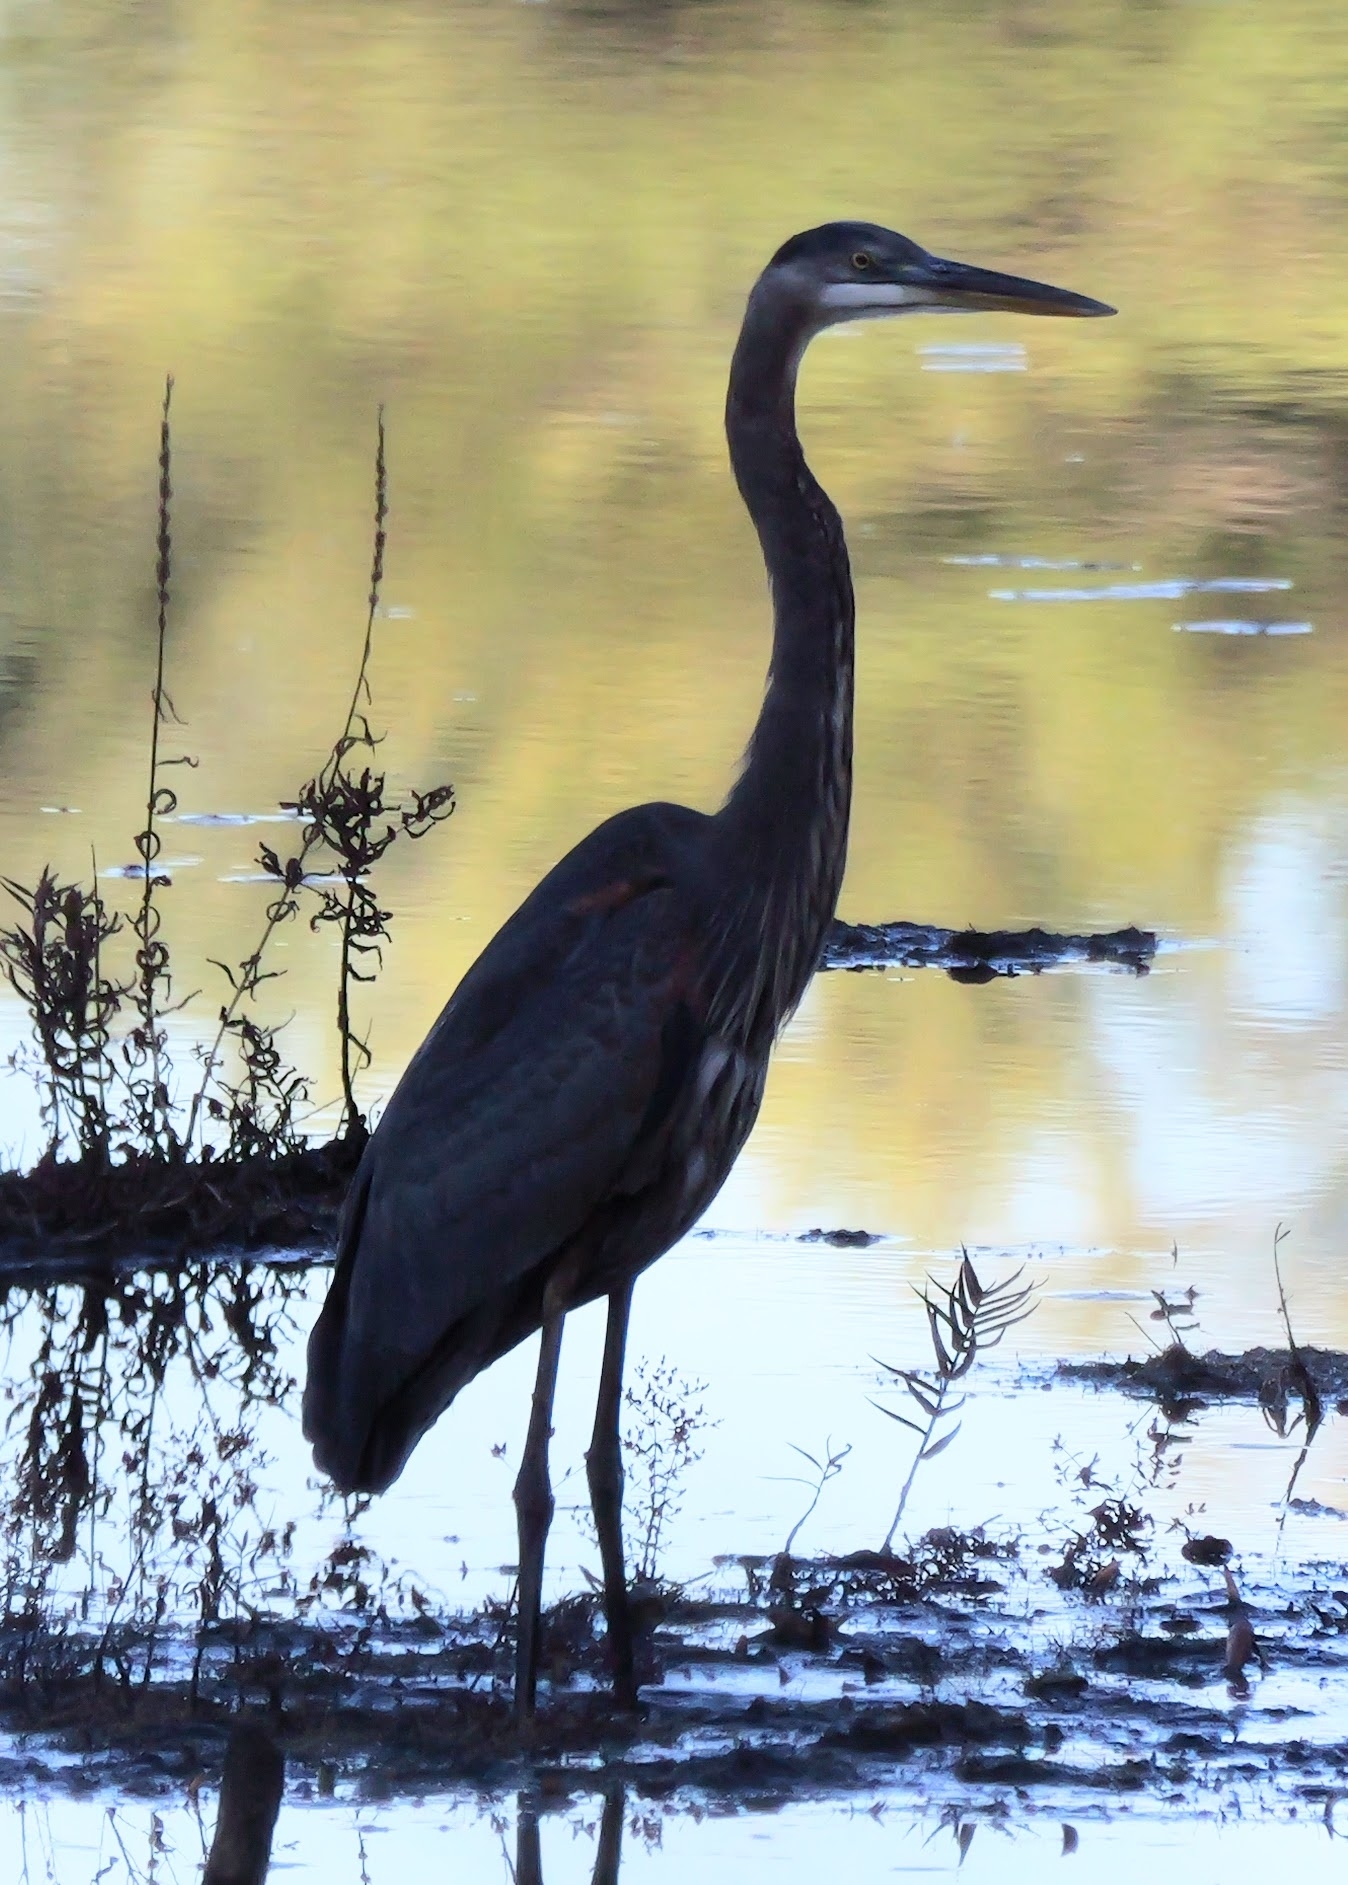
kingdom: Animalia
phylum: Chordata
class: Aves
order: Pelecaniformes
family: Ardeidae
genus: Ardea
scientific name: Ardea herodias
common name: Great blue heron
